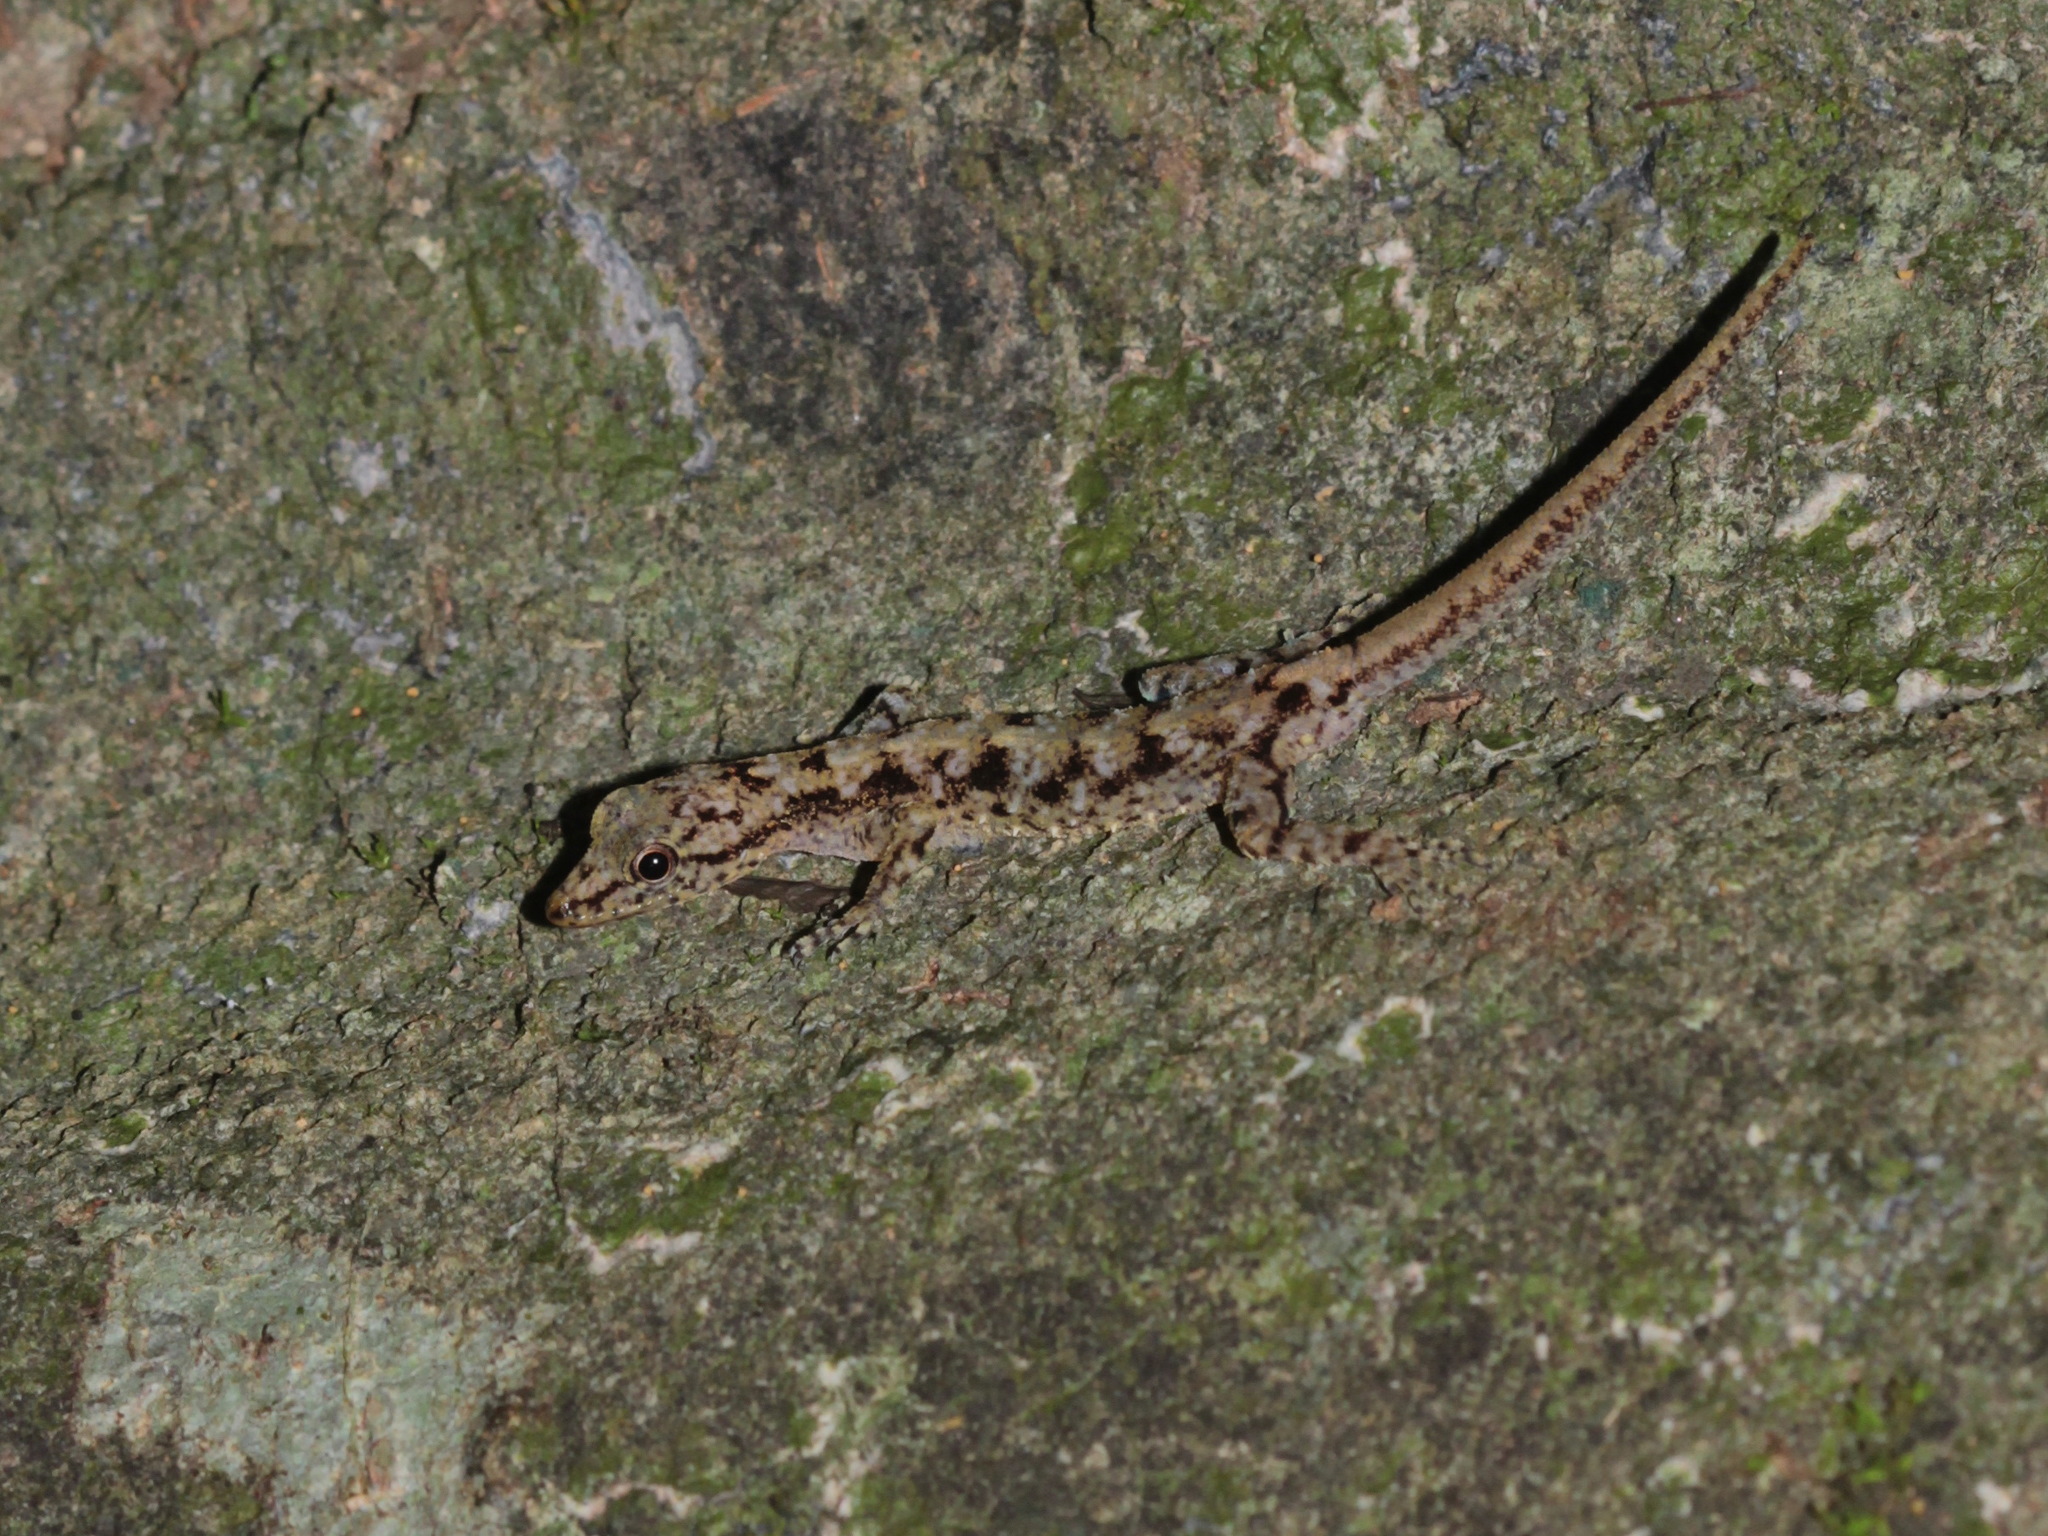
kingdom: Animalia
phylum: Chordata
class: Squamata
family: Gekkonidae
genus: Cnemaspis
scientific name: Cnemaspis phuketensis
